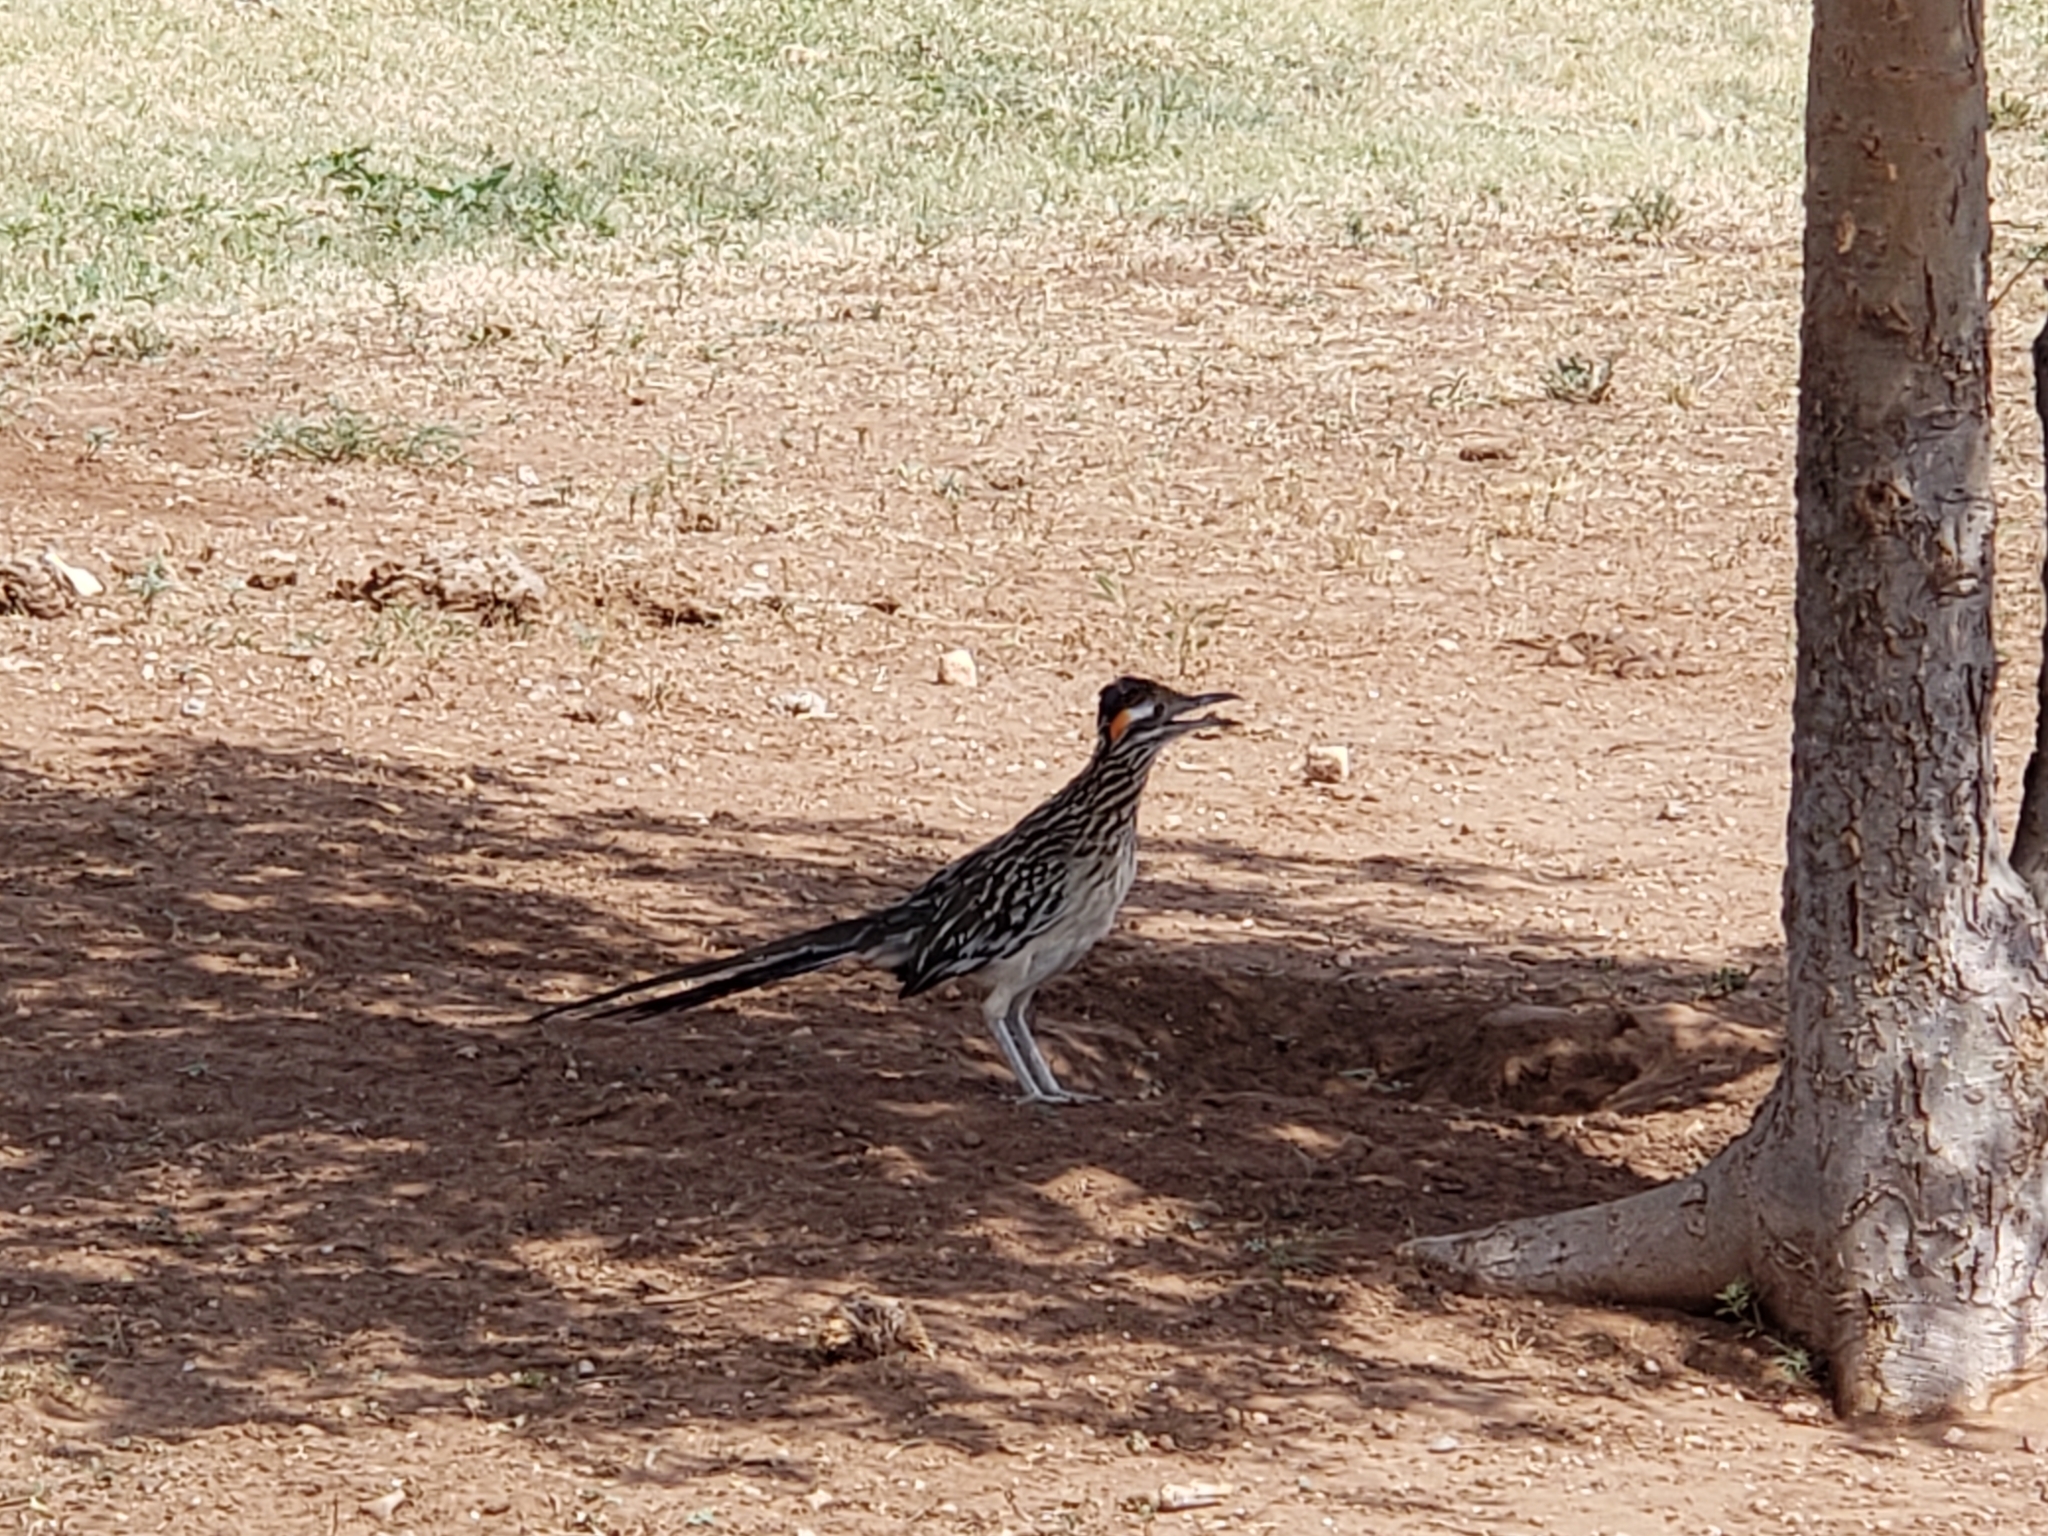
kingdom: Animalia
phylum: Chordata
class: Aves
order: Cuculiformes
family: Cuculidae
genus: Geococcyx
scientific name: Geococcyx californianus
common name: Greater roadrunner
